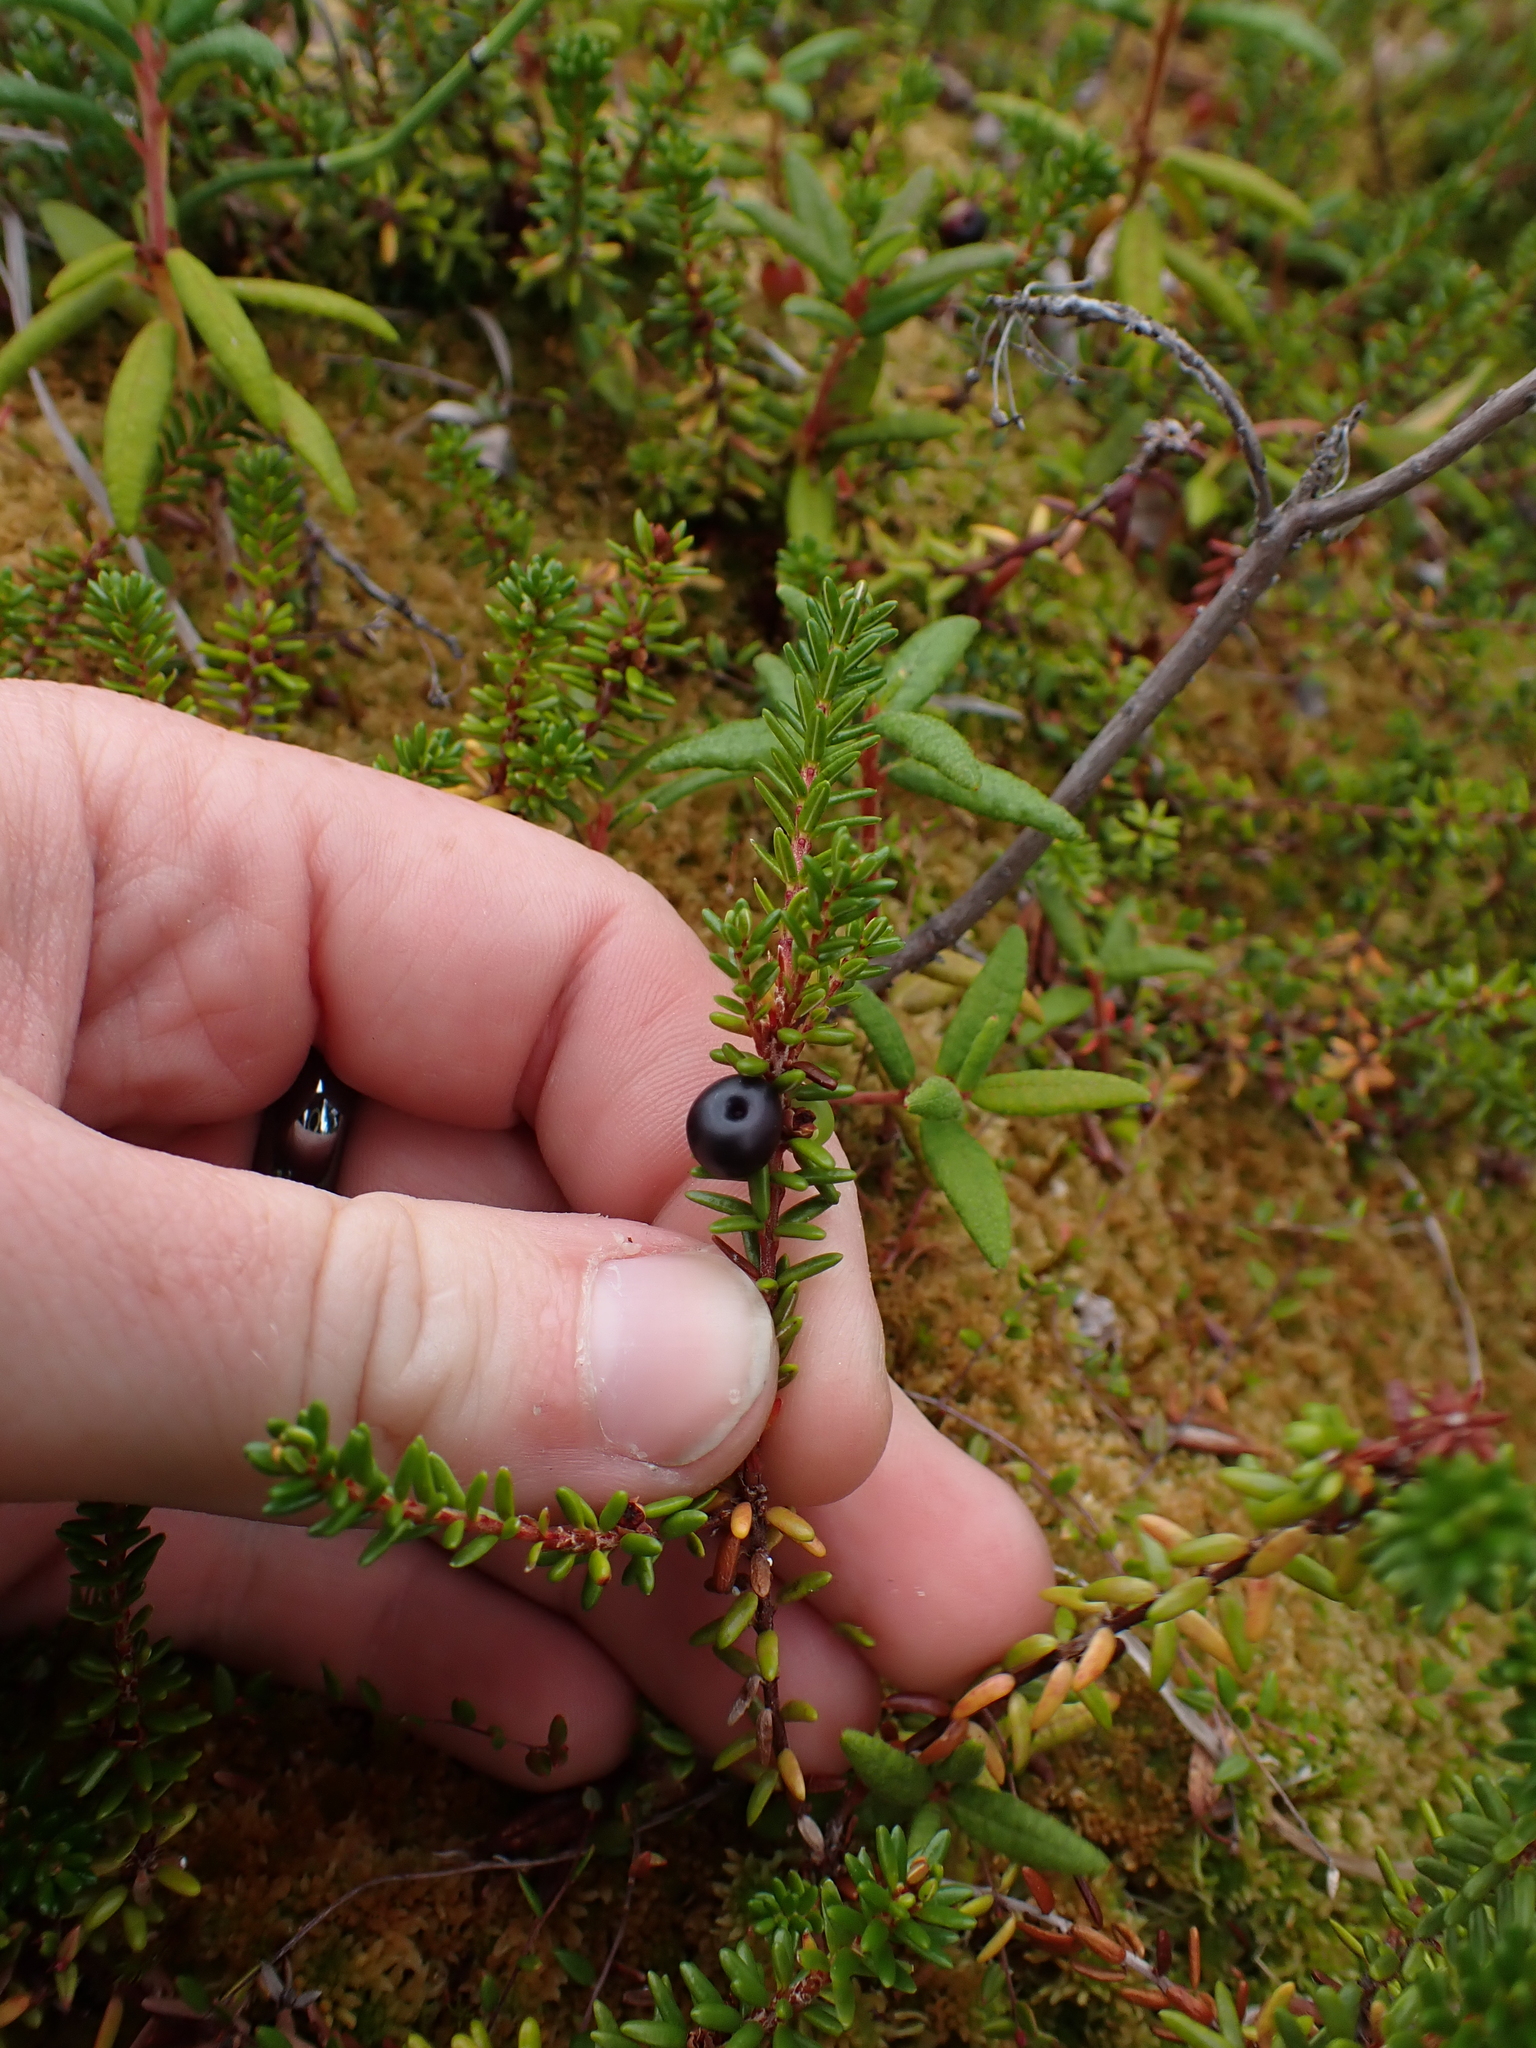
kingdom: Plantae
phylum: Tracheophyta
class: Magnoliopsida
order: Ericales
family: Ericaceae
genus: Empetrum
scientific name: Empetrum nigrum
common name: Black crowberry
